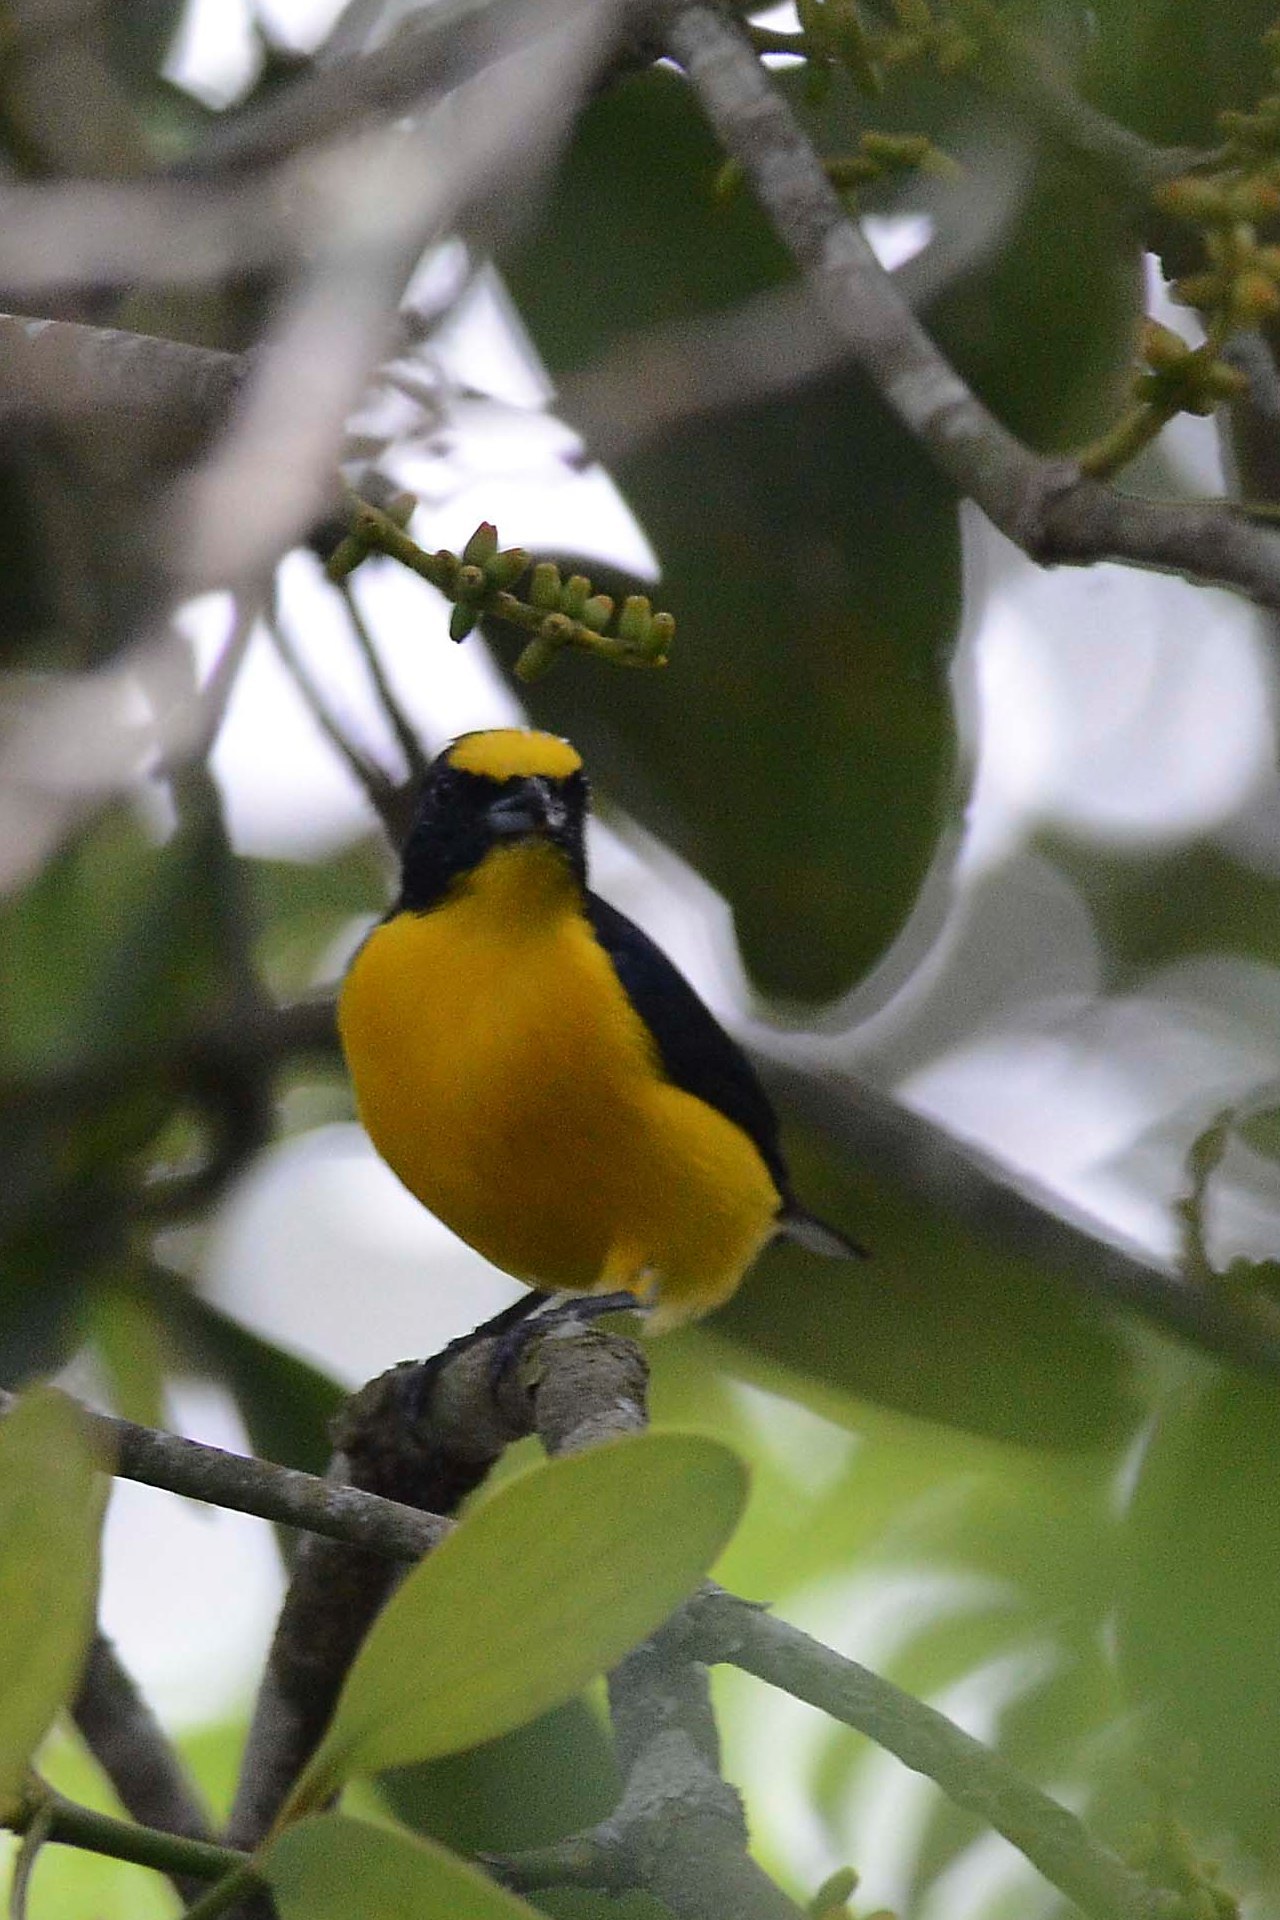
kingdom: Animalia
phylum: Chordata
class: Aves
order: Passeriformes
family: Fringillidae
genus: Euphonia
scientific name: Euphonia hirundinacea
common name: Yellow-throated euphonia
